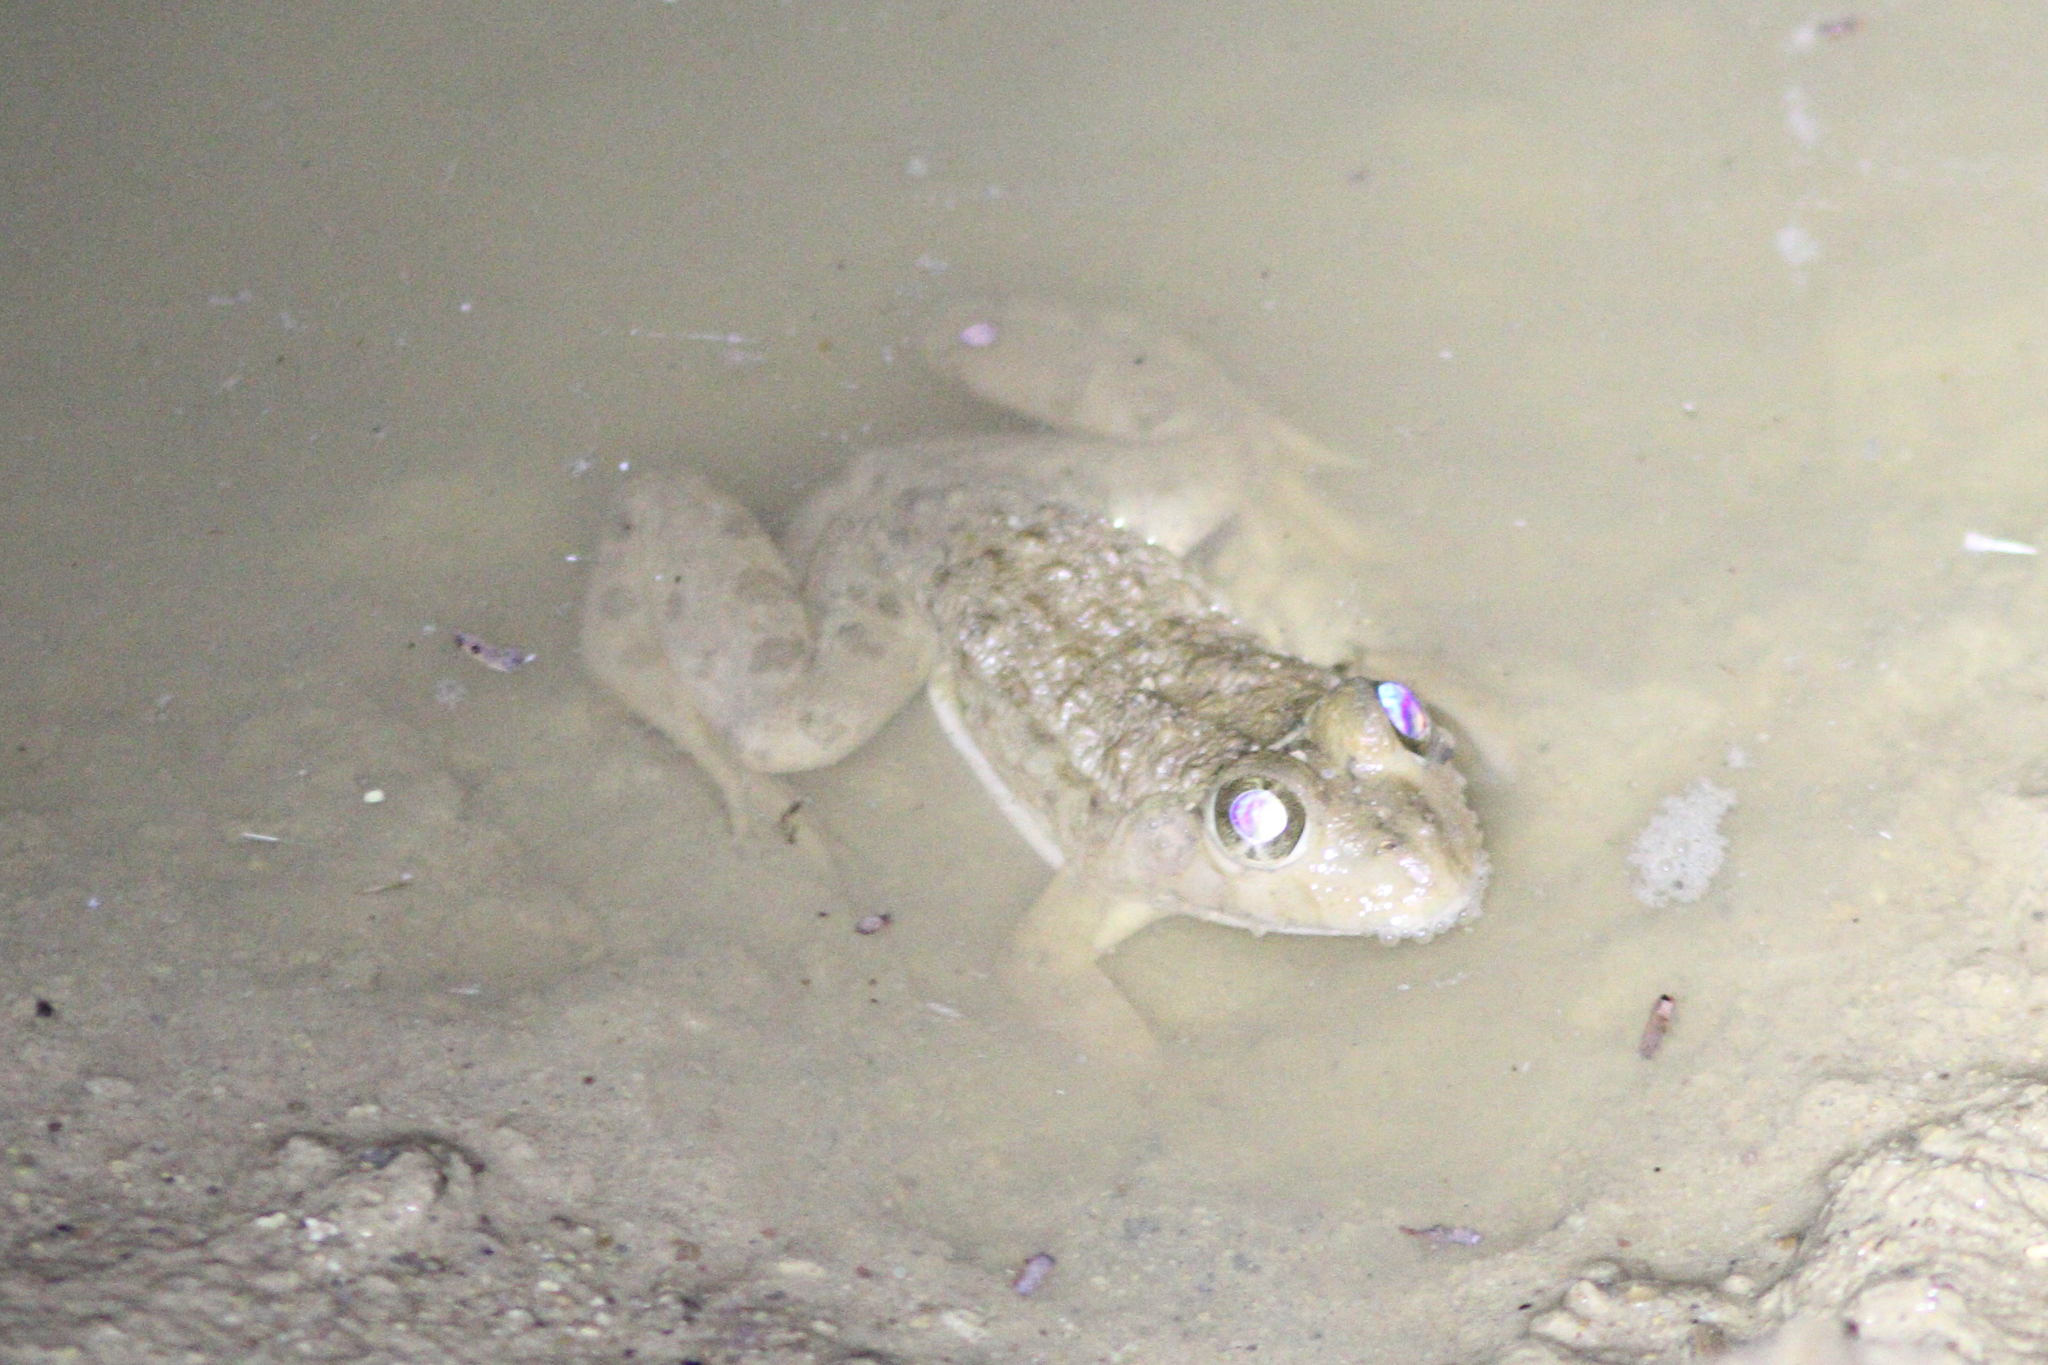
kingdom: Animalia
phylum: Chordata
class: Amphibia
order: Anura
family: Dicroglossidae
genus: Hoplobatrachus
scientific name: Hoplobatrachus occipitalis
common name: Eastern groove-crowned bullfrog
